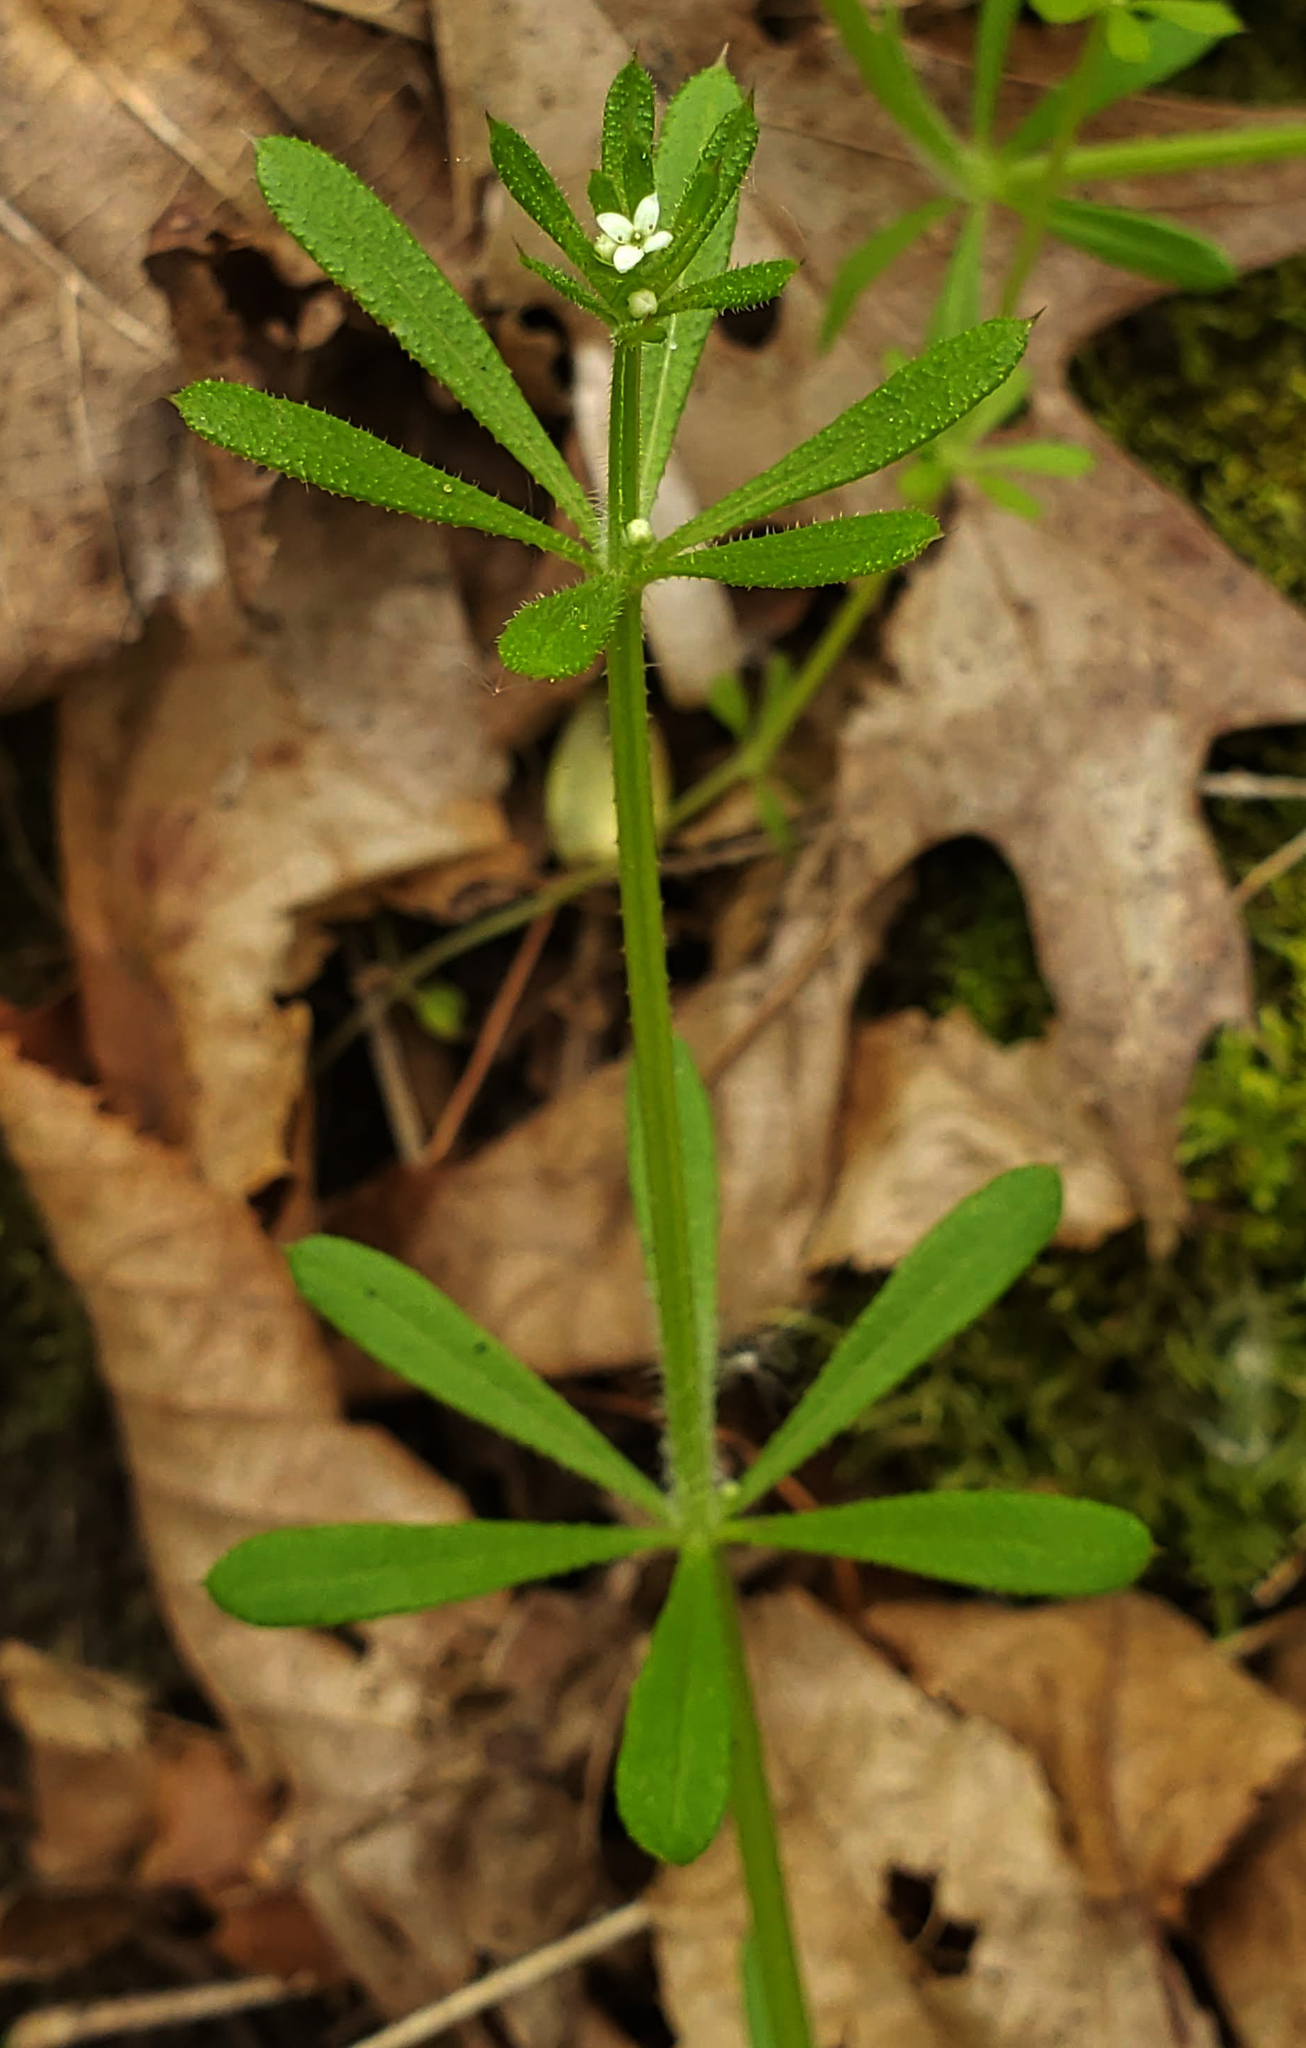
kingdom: Plantae
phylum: Tracheophyta
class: Magnoliopsida
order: Gentianales
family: Rubiaceae
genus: Galium
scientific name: Galium aparine
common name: Cleavers
